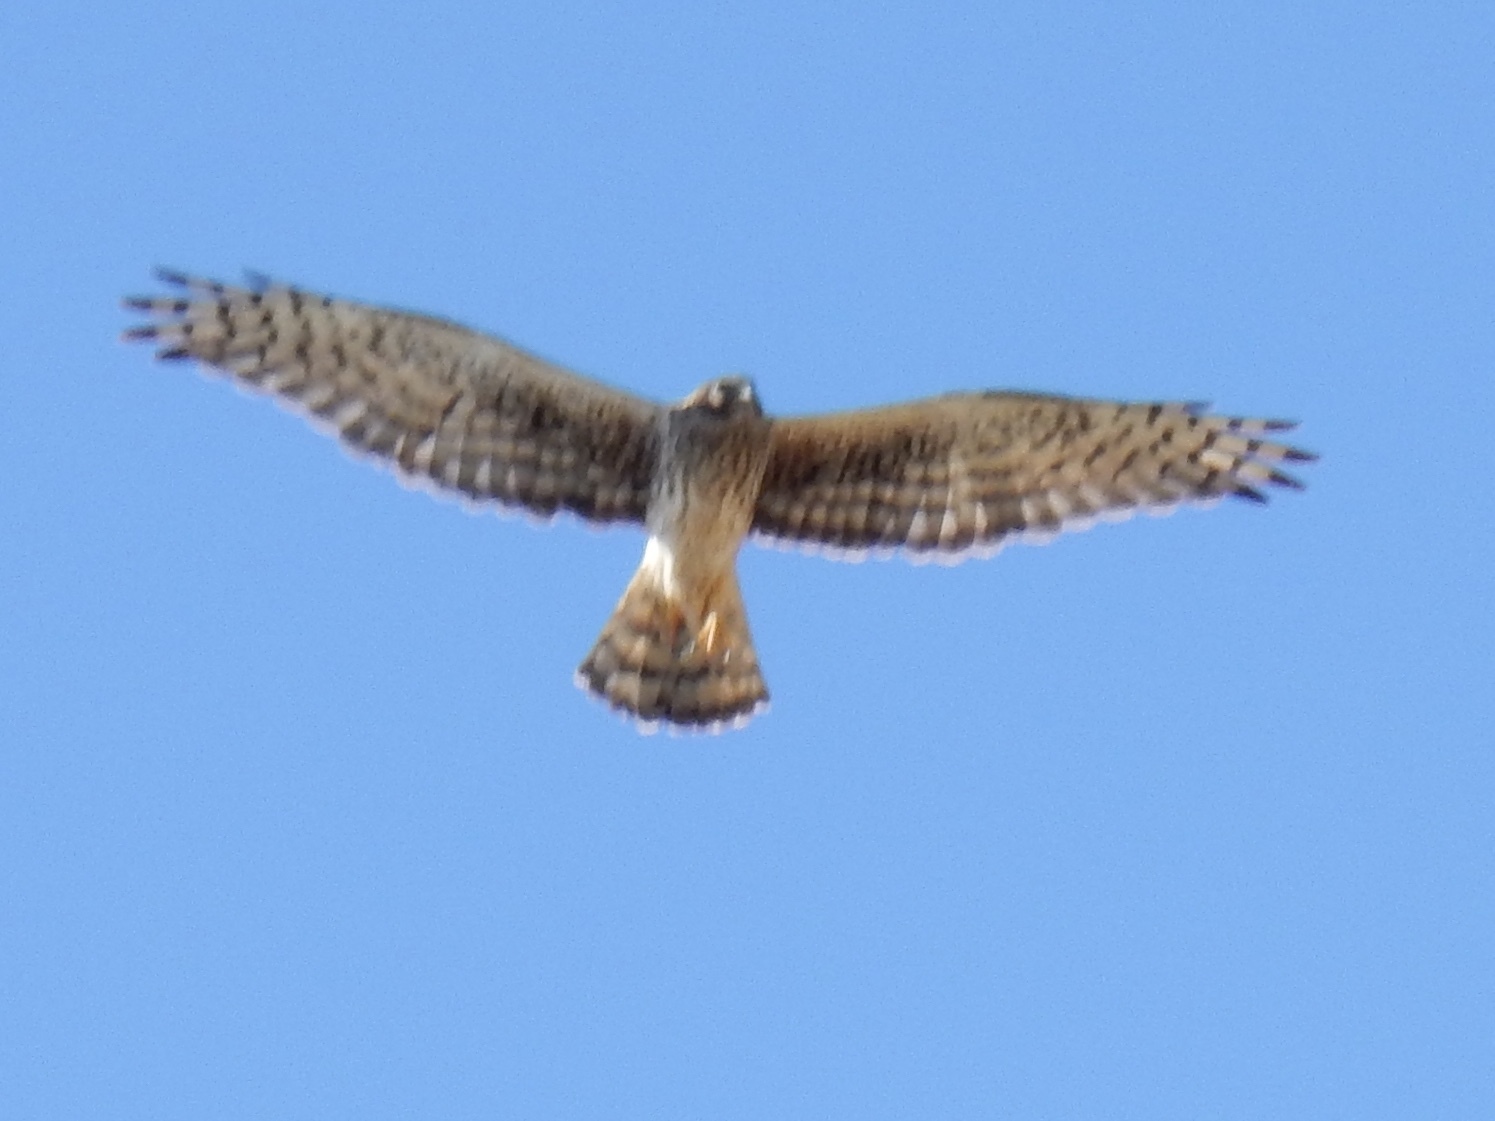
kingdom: Animalia
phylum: Chordata
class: Aves
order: Accipitriformes
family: Accipitridae
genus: Circus
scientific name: Circus cyaneus
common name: Hen harrier
